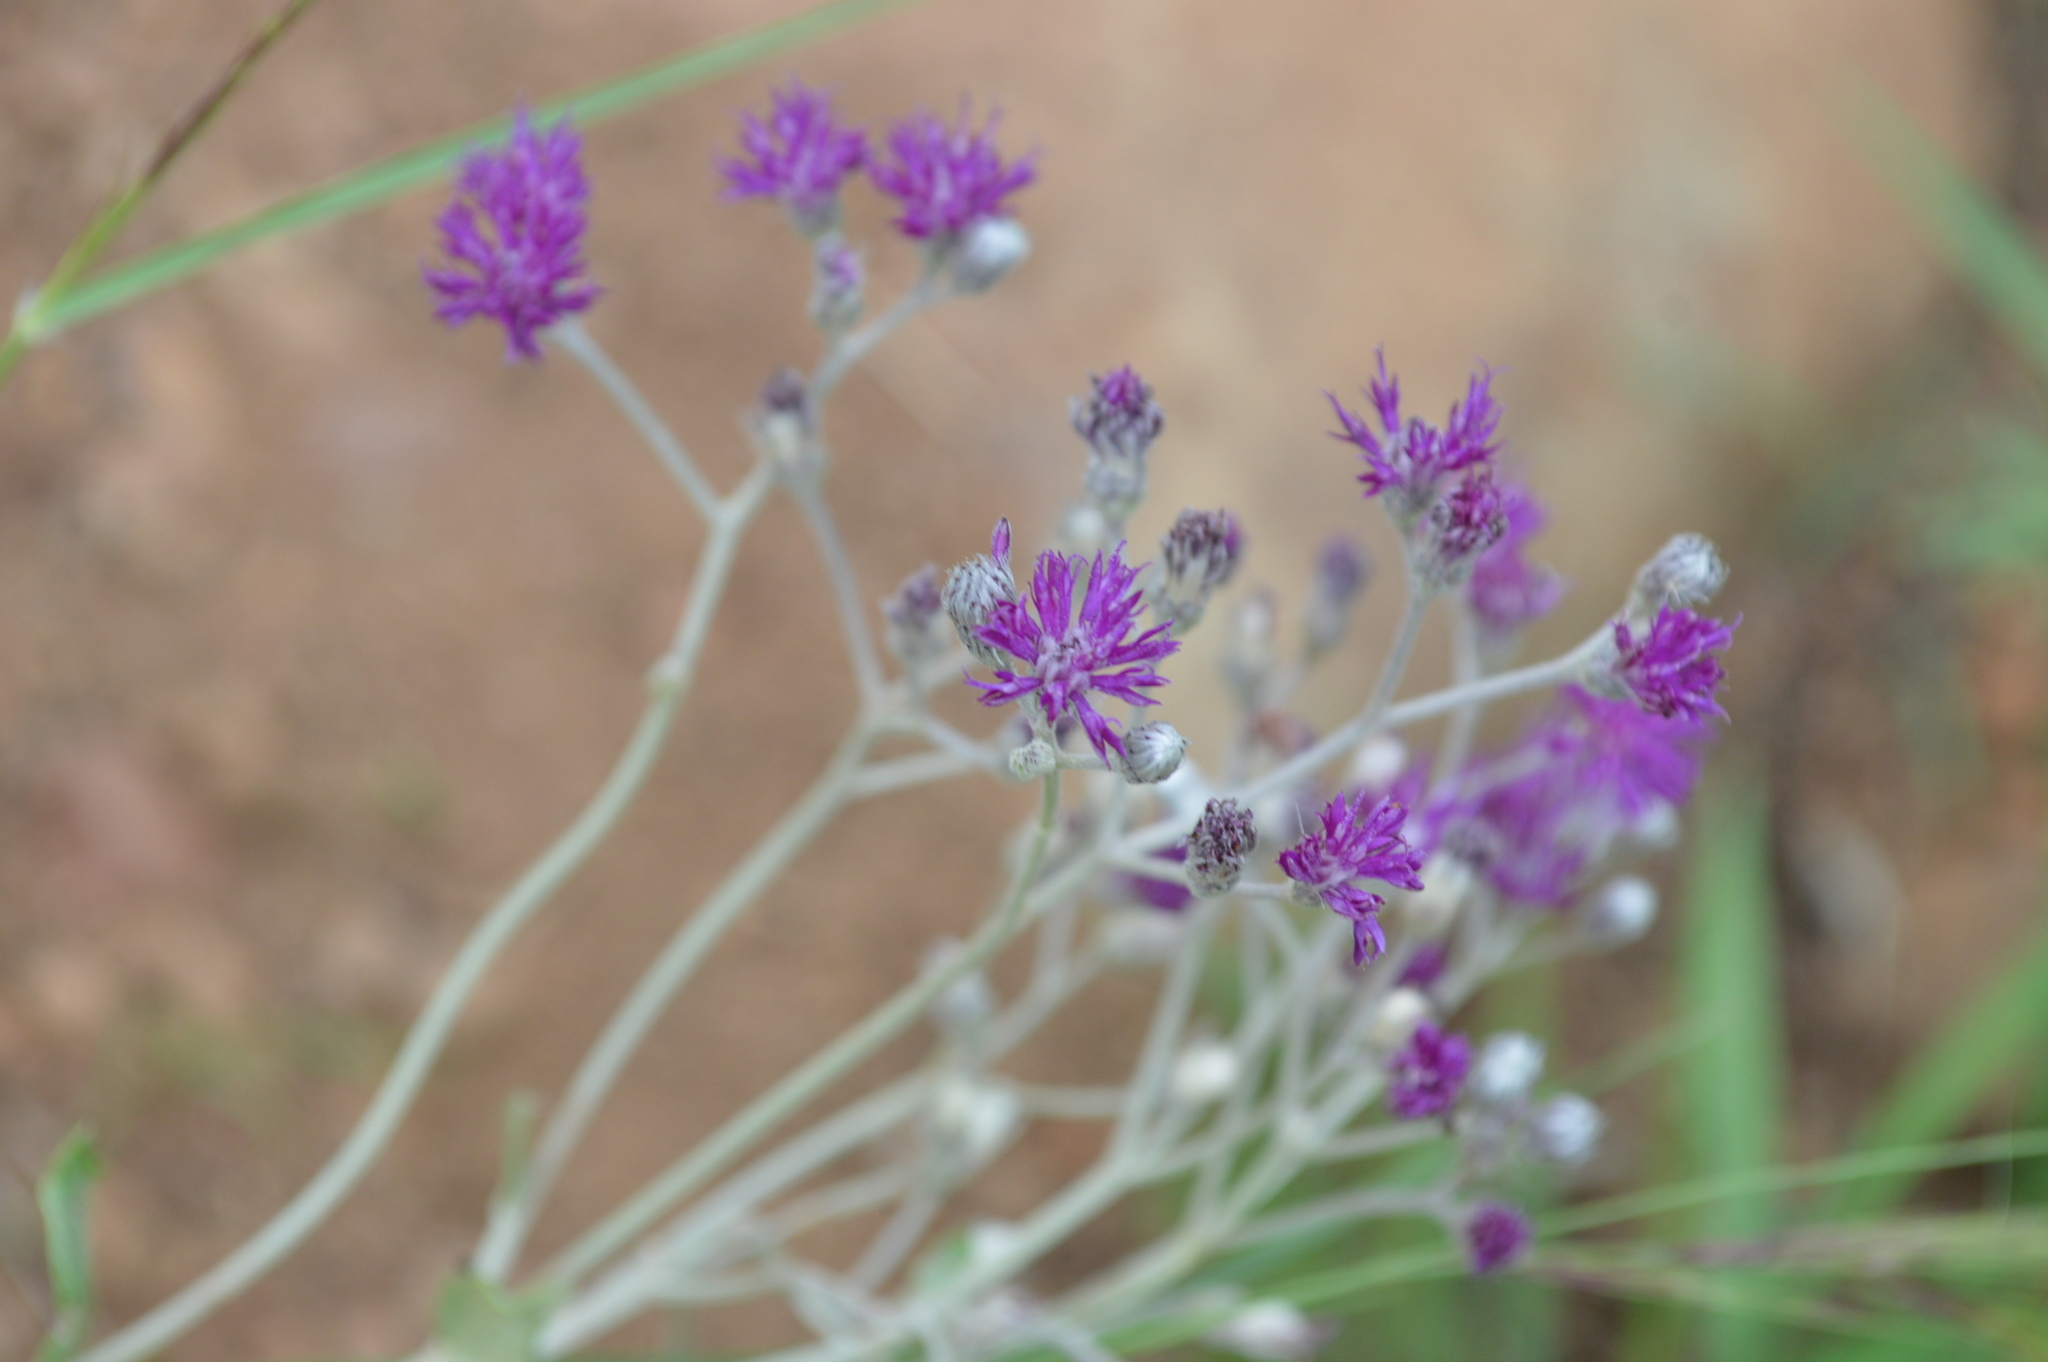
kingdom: Plantae
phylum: Tracheophyta
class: Magnoliopsida
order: Asterales
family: Asteraceae
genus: Hilliardiella
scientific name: Hilliardiella oligocephala
